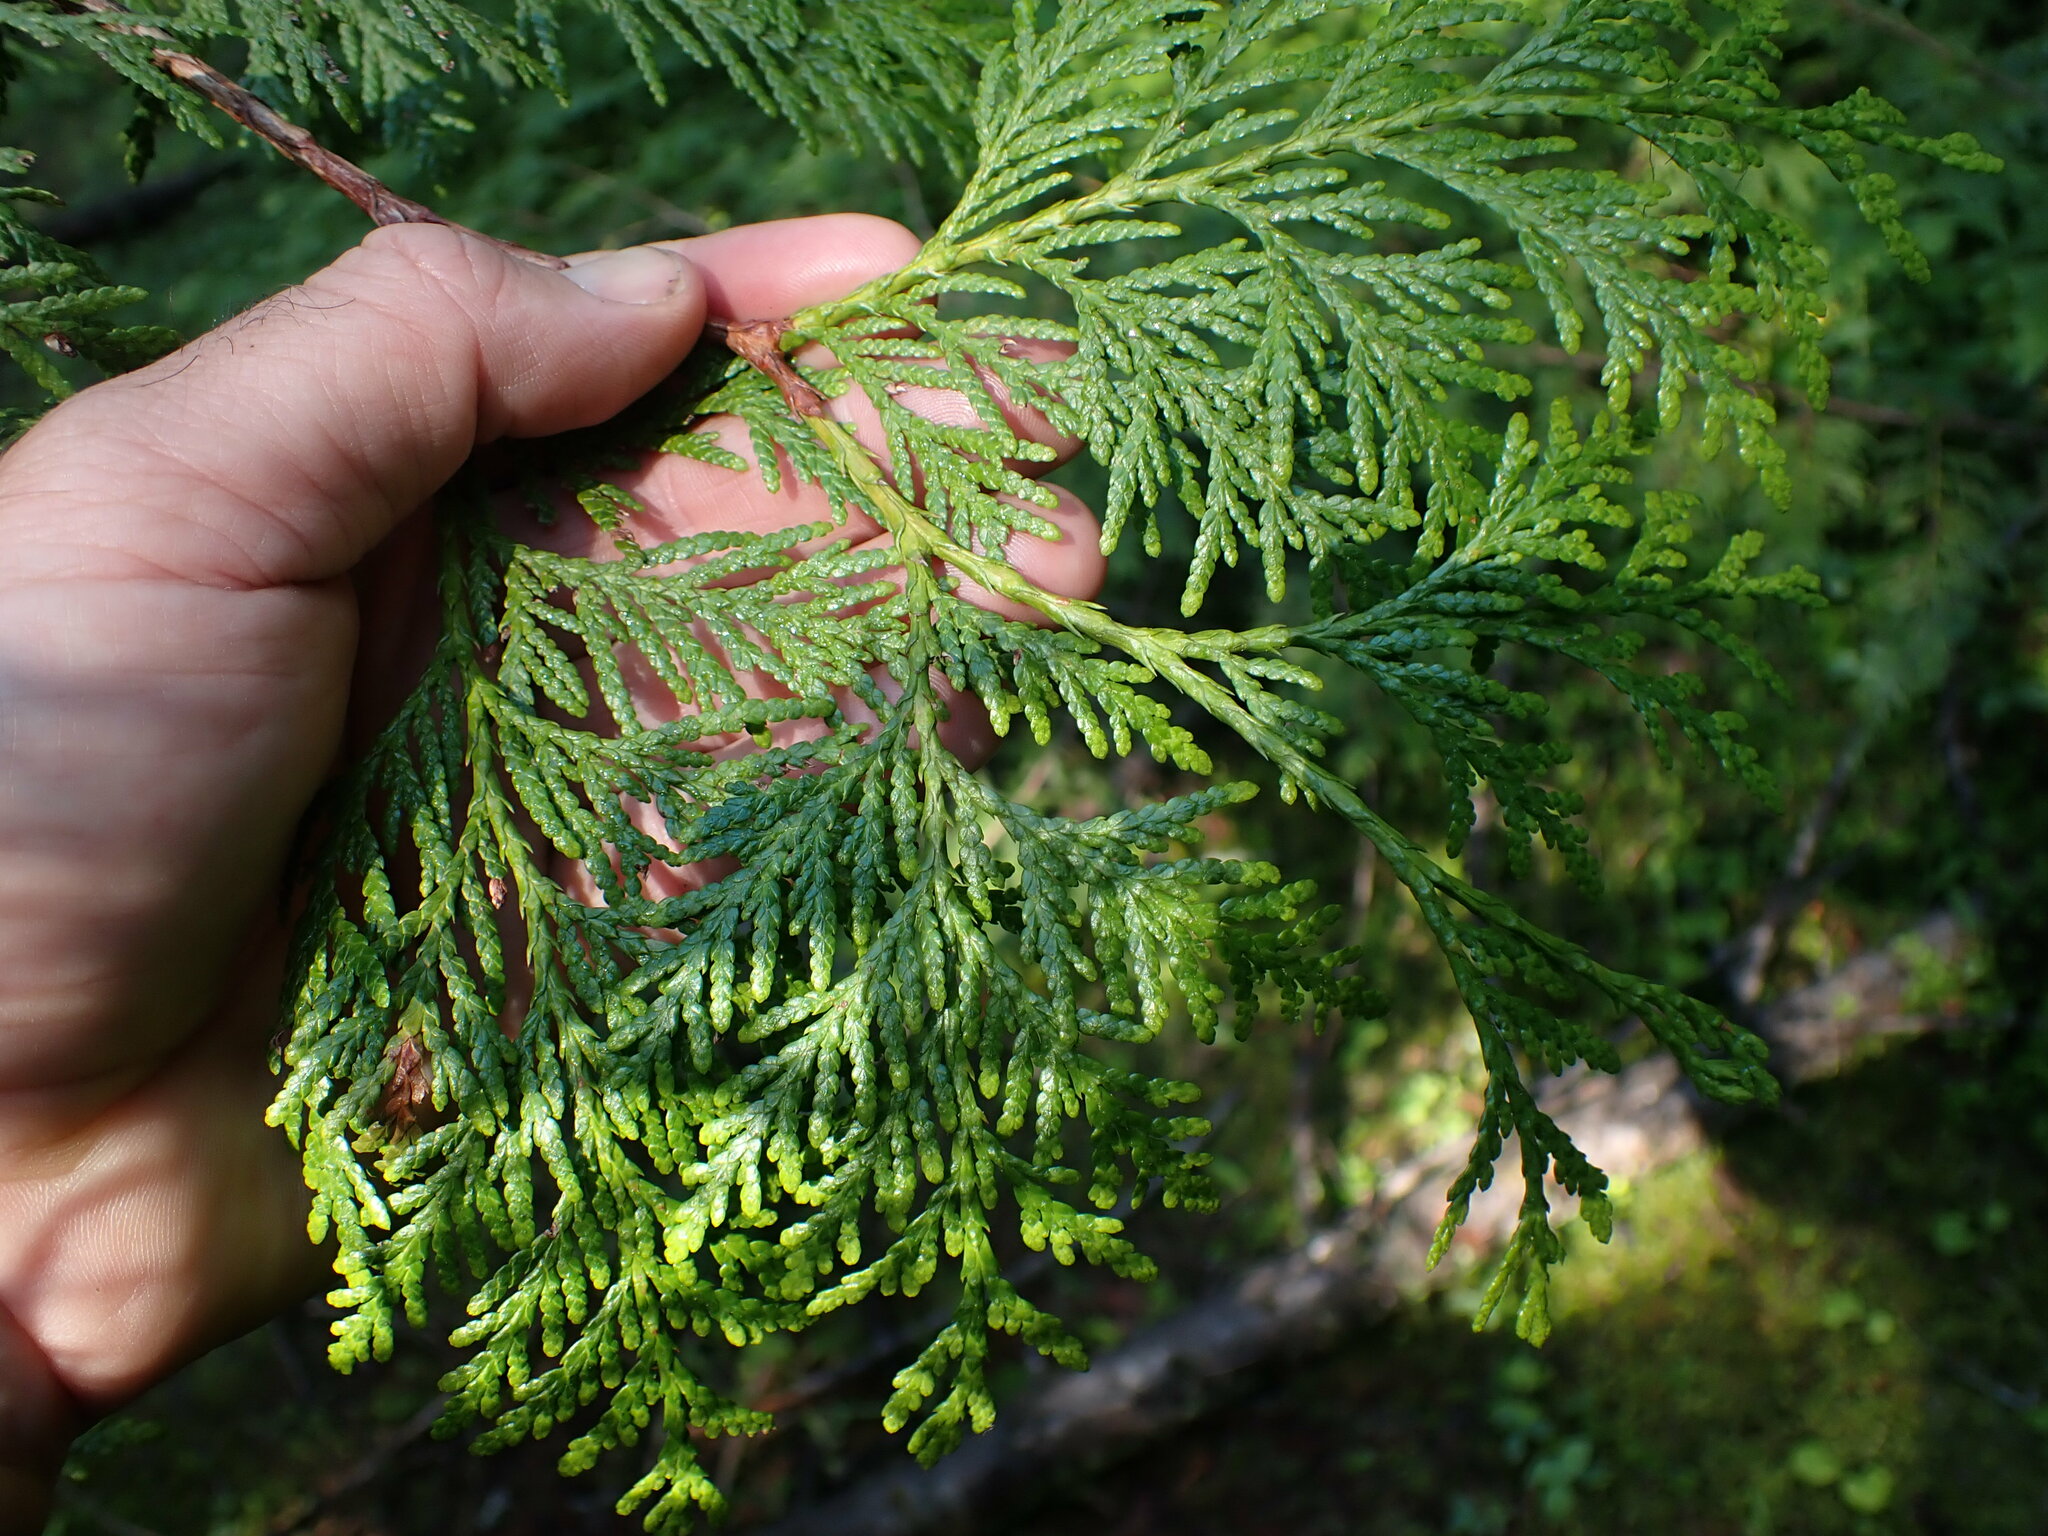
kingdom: Plantae
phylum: Tracheophyta
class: Pinopsida
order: Pinales
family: Cupressaceae
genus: Thuja
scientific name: Thuja plicata
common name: Western red-cedar
